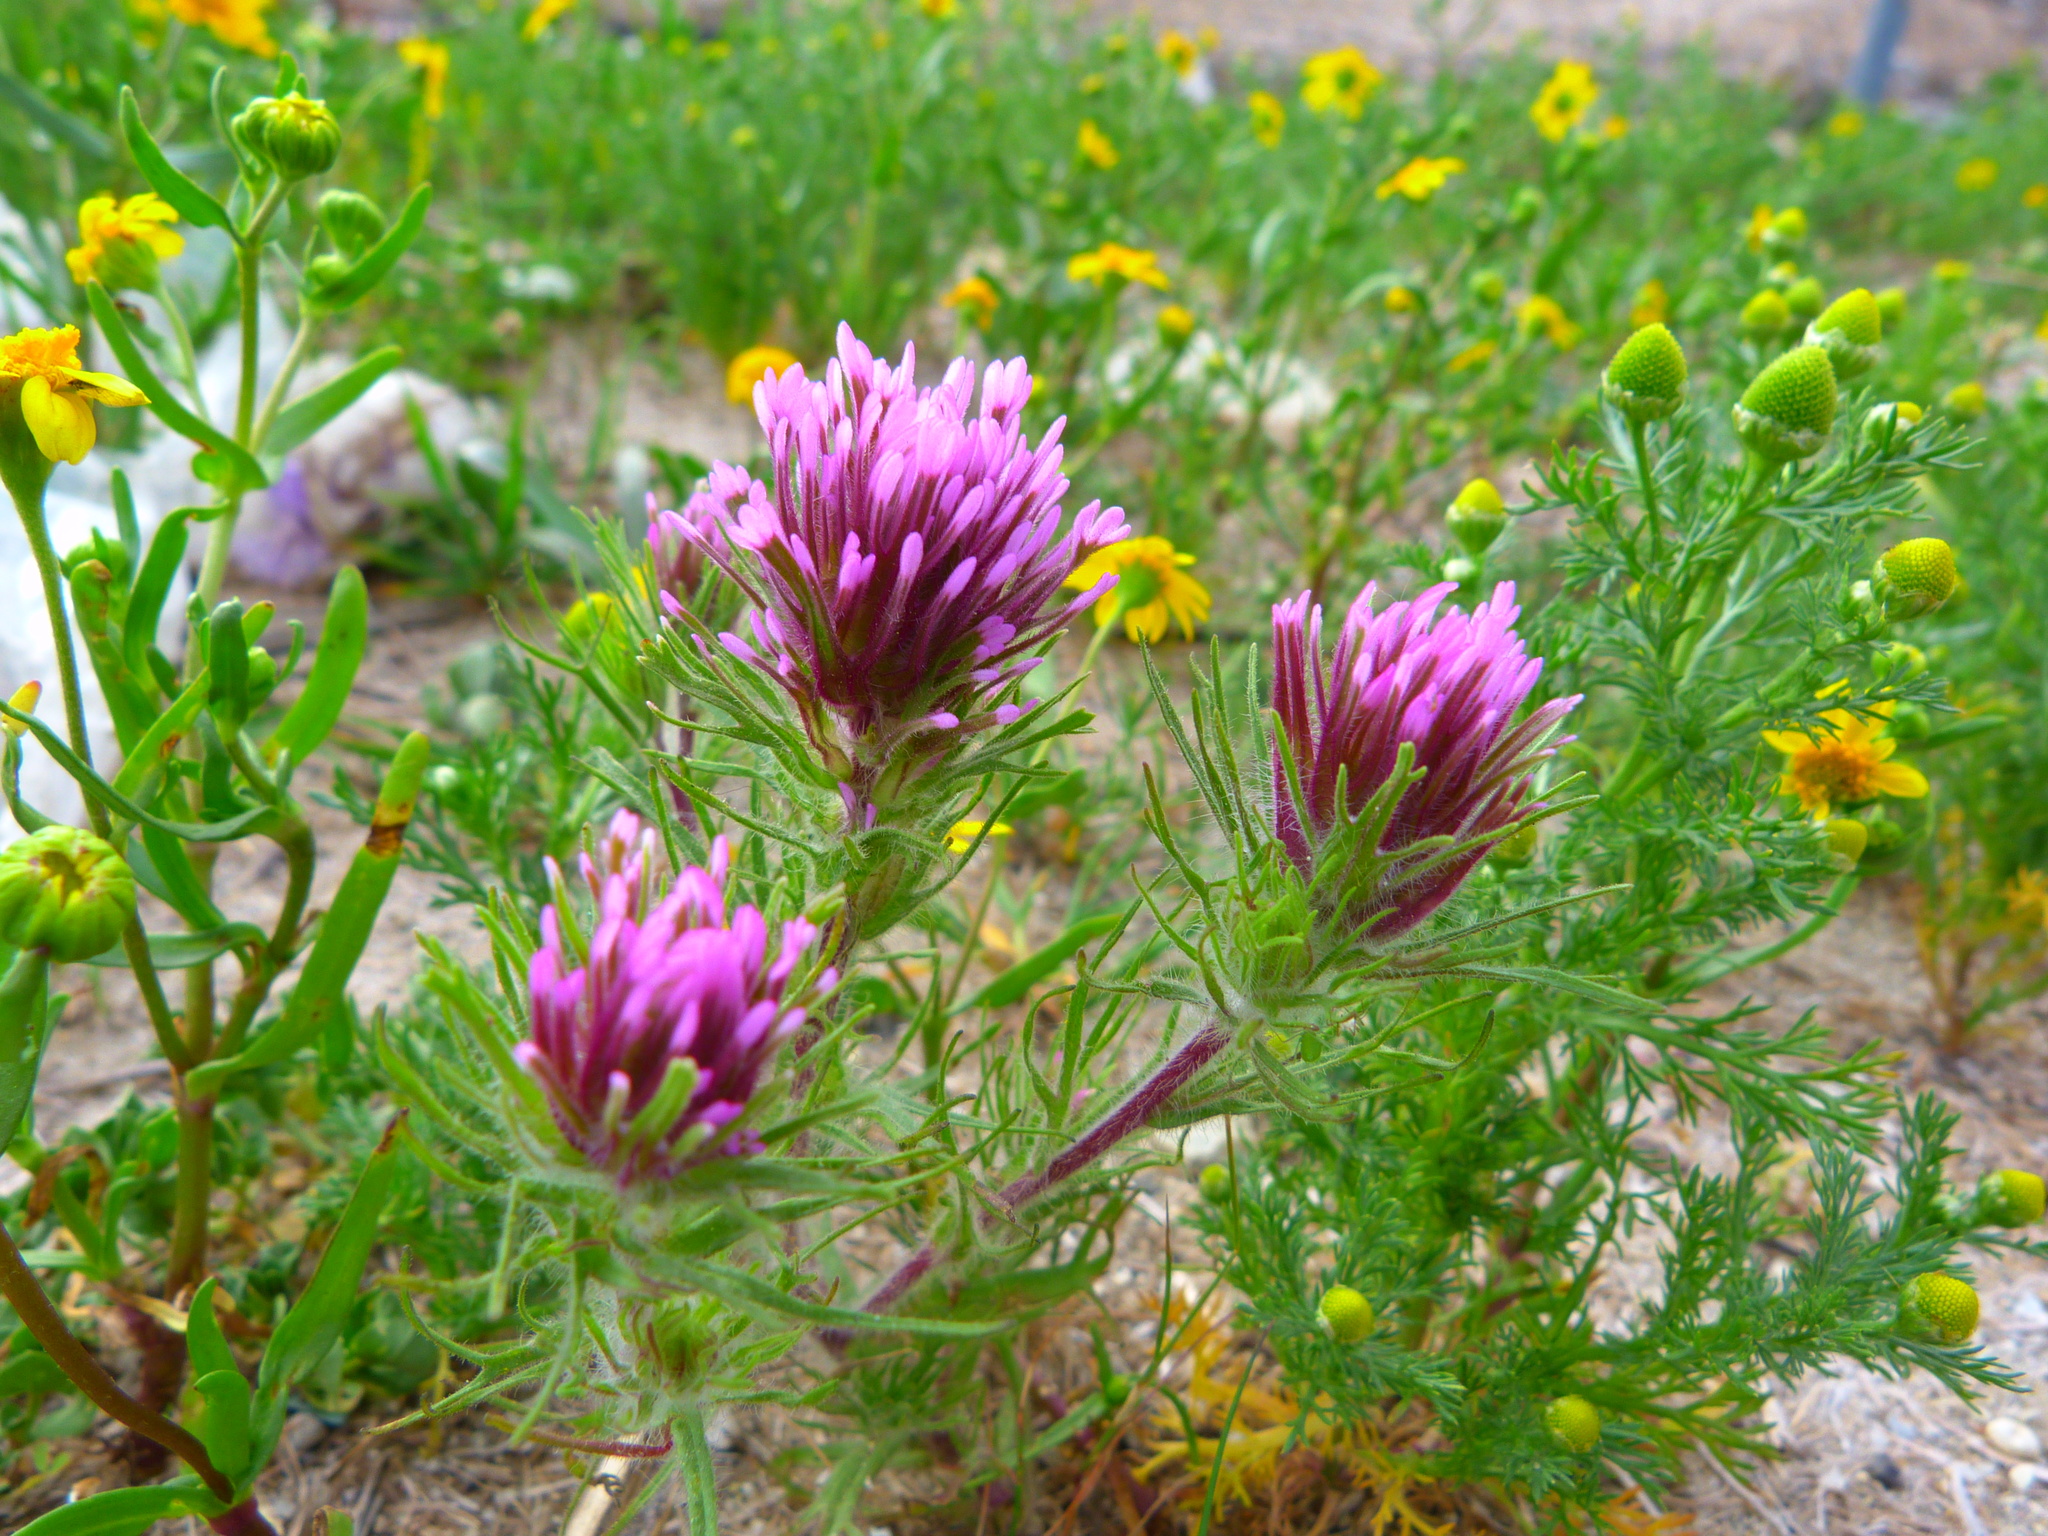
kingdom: Plantae
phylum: Tracheophyta
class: Magnoliopsida
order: Lamiales
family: Orobanchaceae
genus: Castilleja
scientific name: Castilleja exserta
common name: Purple owl-clover
